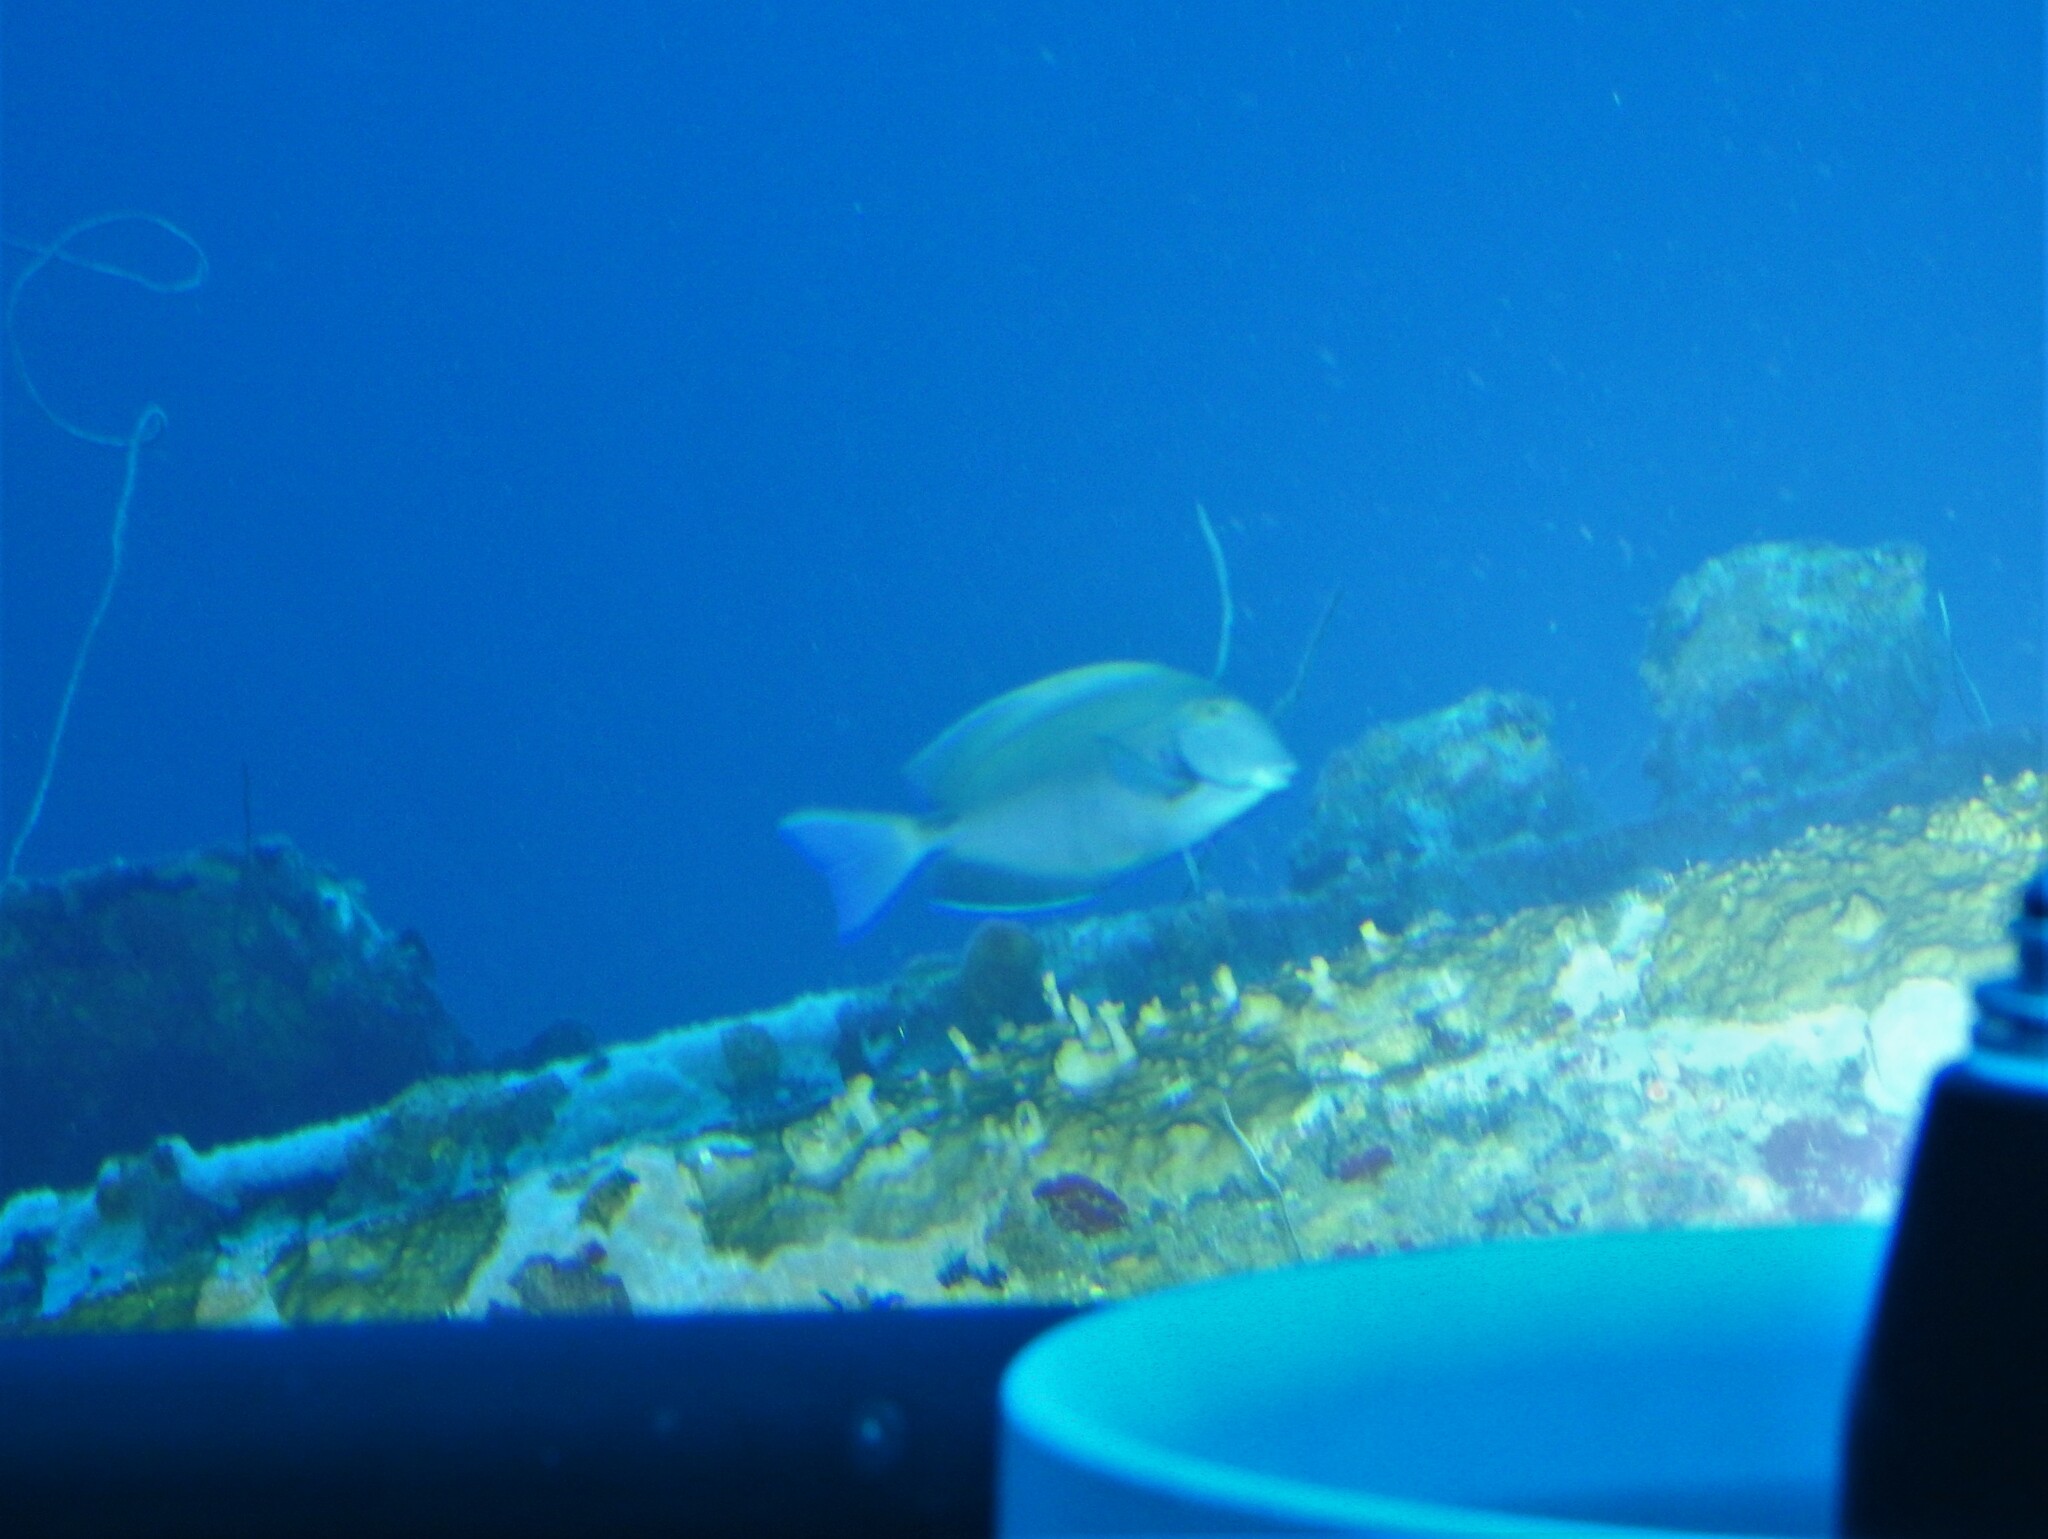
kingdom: Animalia
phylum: Chordata
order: Perciformes
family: Acanthuridae
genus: Acanthurus
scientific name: Acanthurus bahianus
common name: Ocean surgeon
